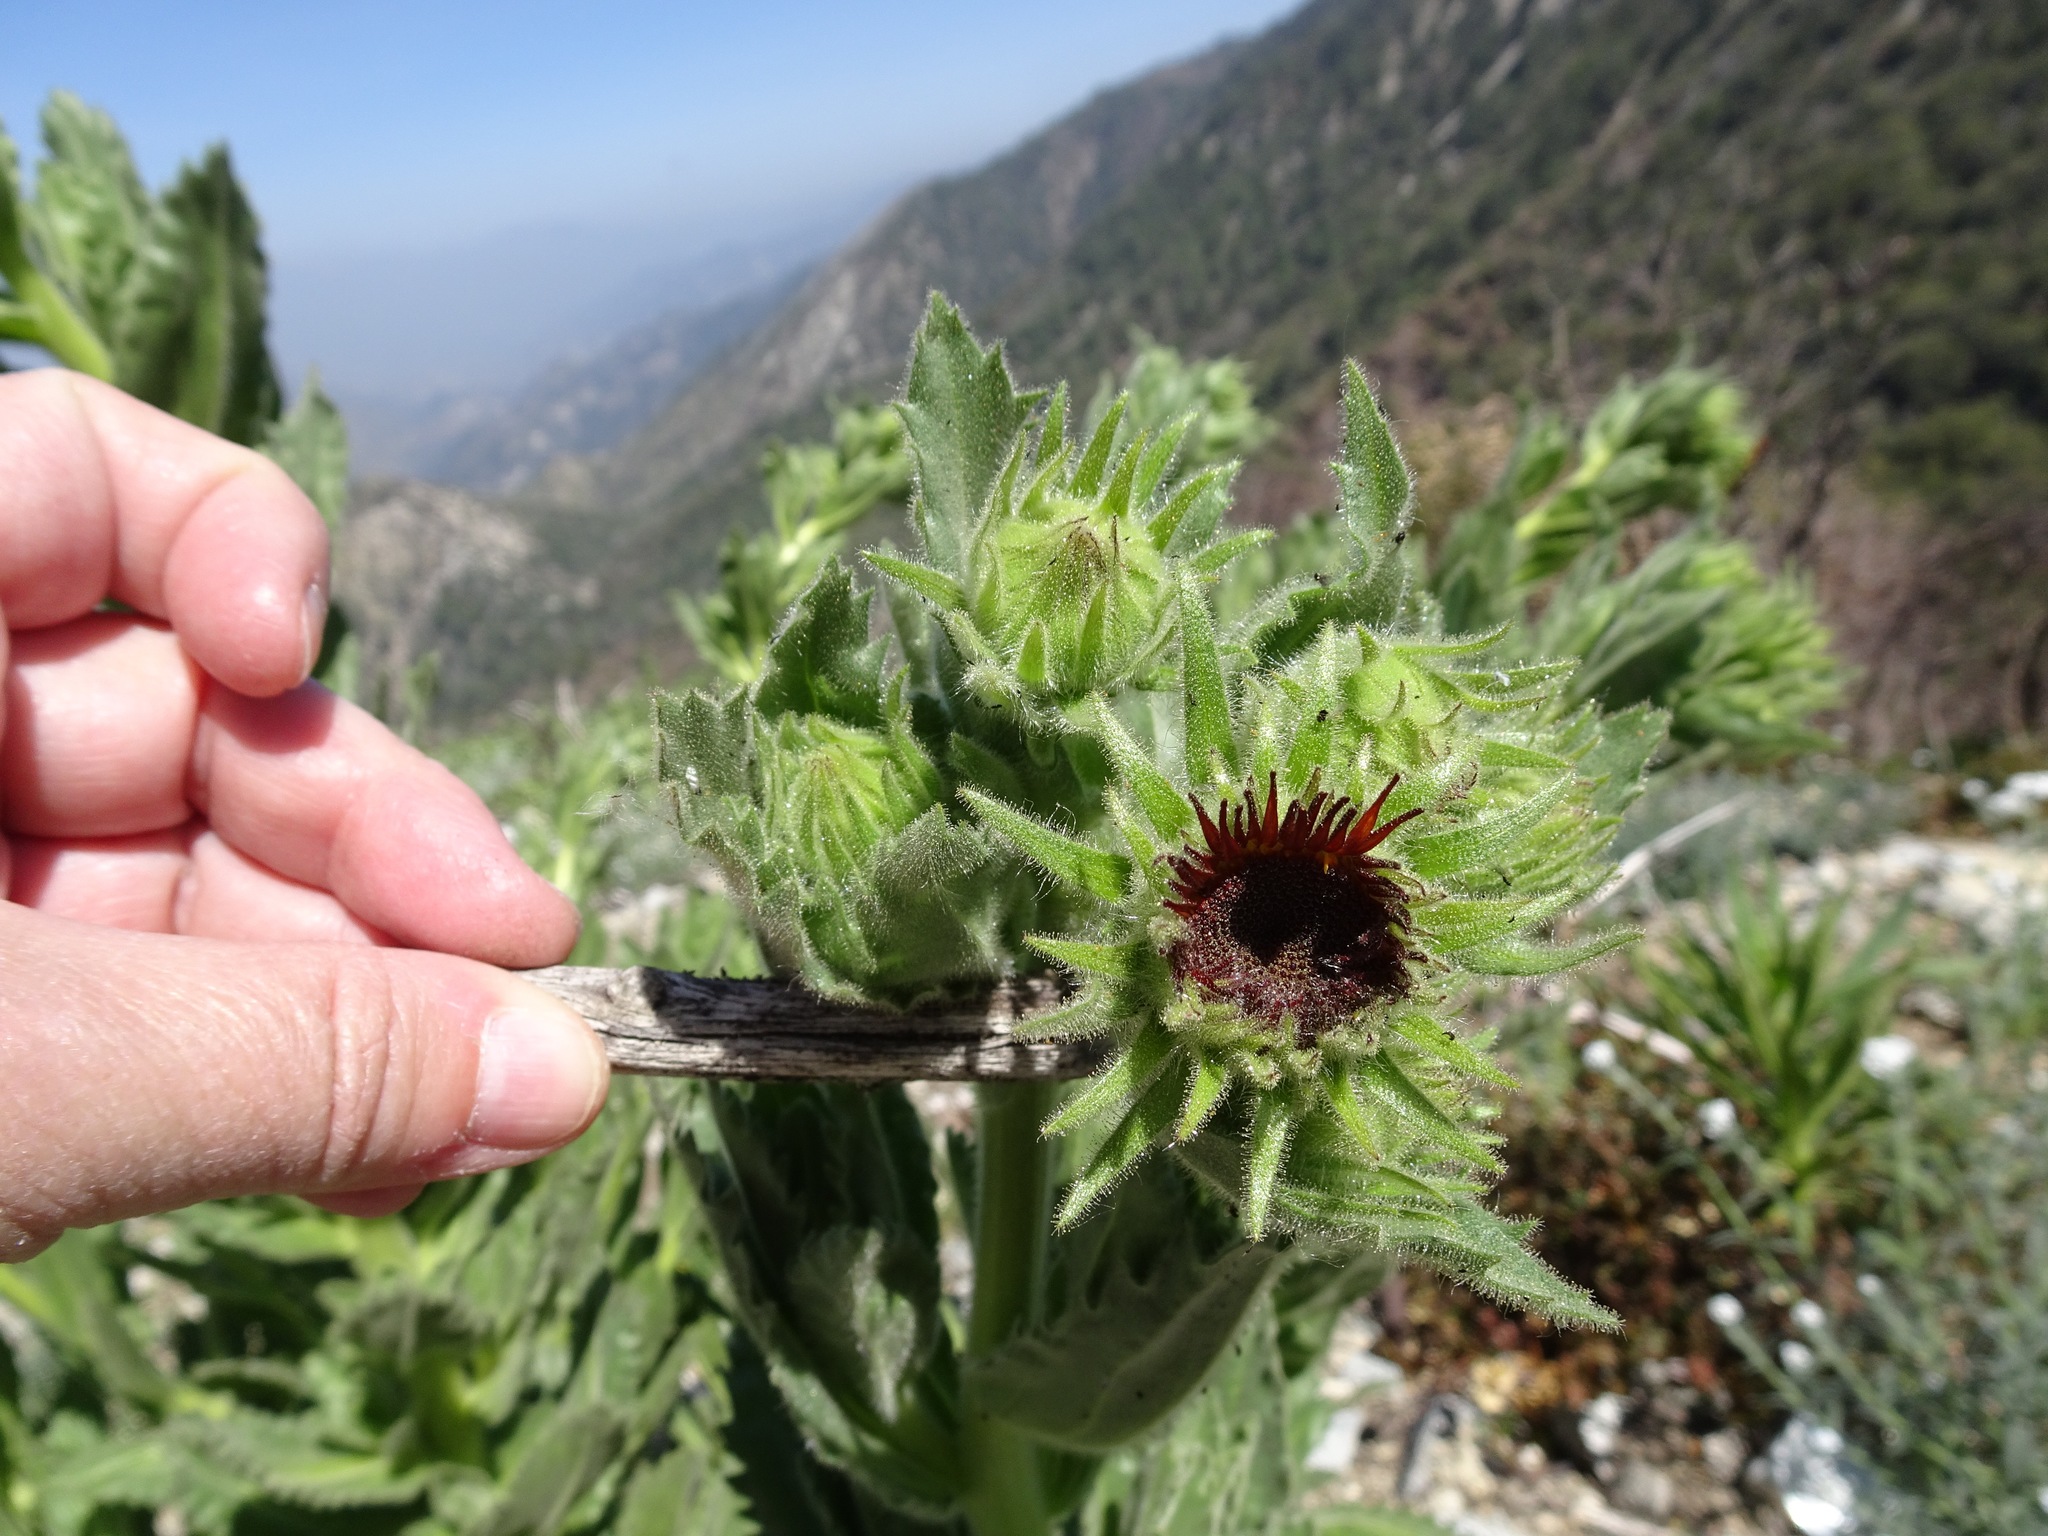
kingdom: Plantae
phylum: Tracheophyta
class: Magnoliopsida
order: Asterales
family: Asteraceae
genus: Hulsea
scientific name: Hulsea heterochroma
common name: Redray alpinegold
